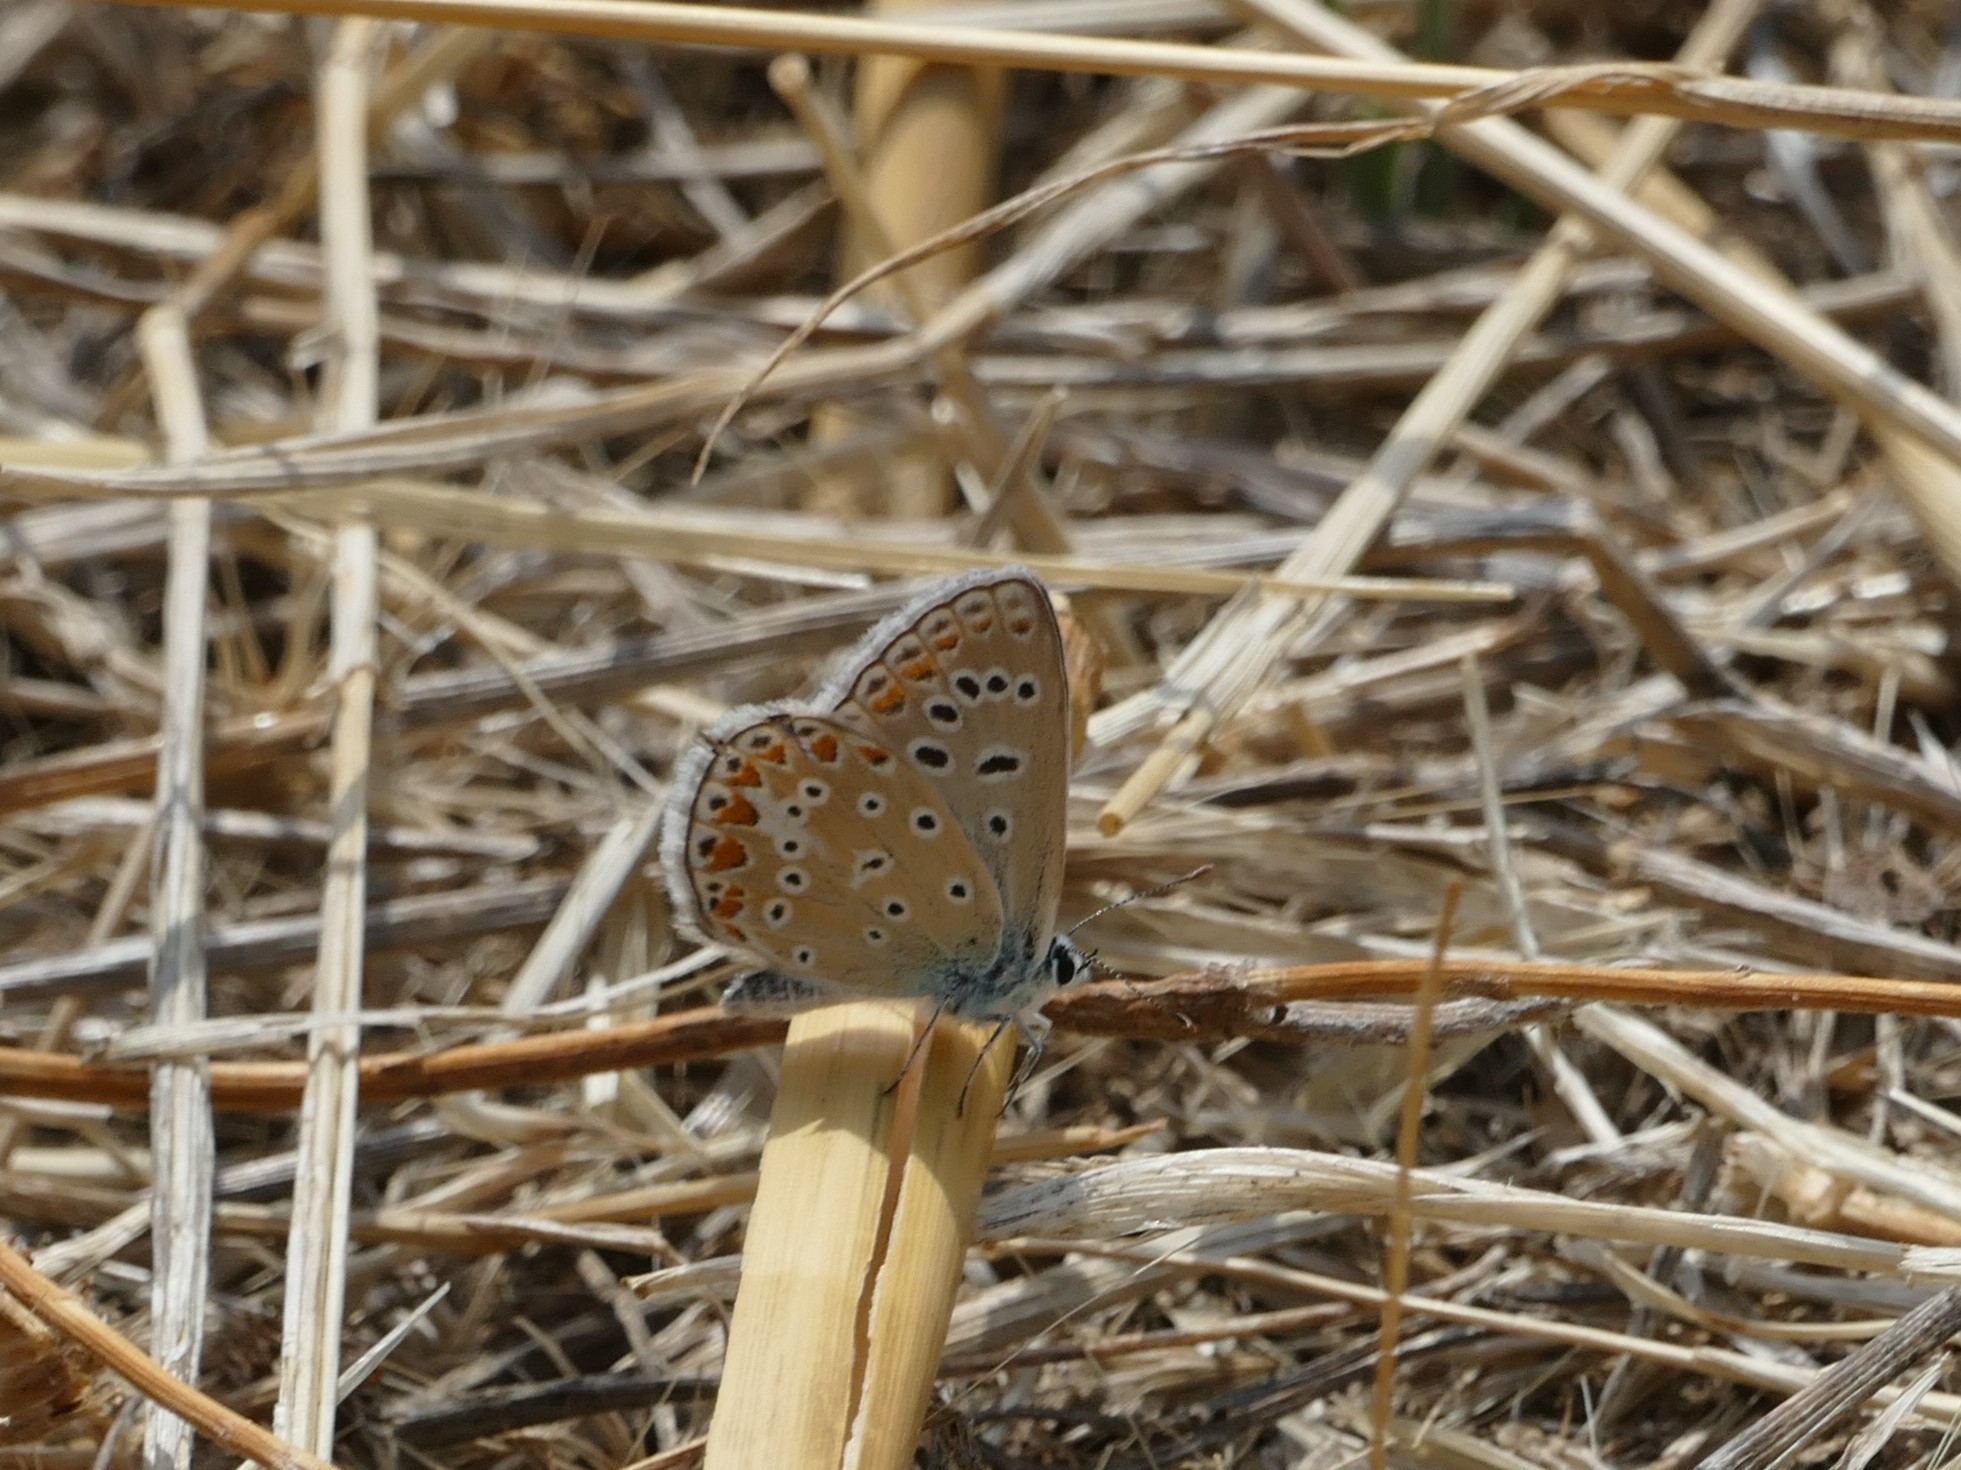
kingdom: Animalia
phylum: Arthropoda
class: Insecta
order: Lepidoptera
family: Lycaenidae
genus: Polyommatus
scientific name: Polyommatus icarus
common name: Common blue
